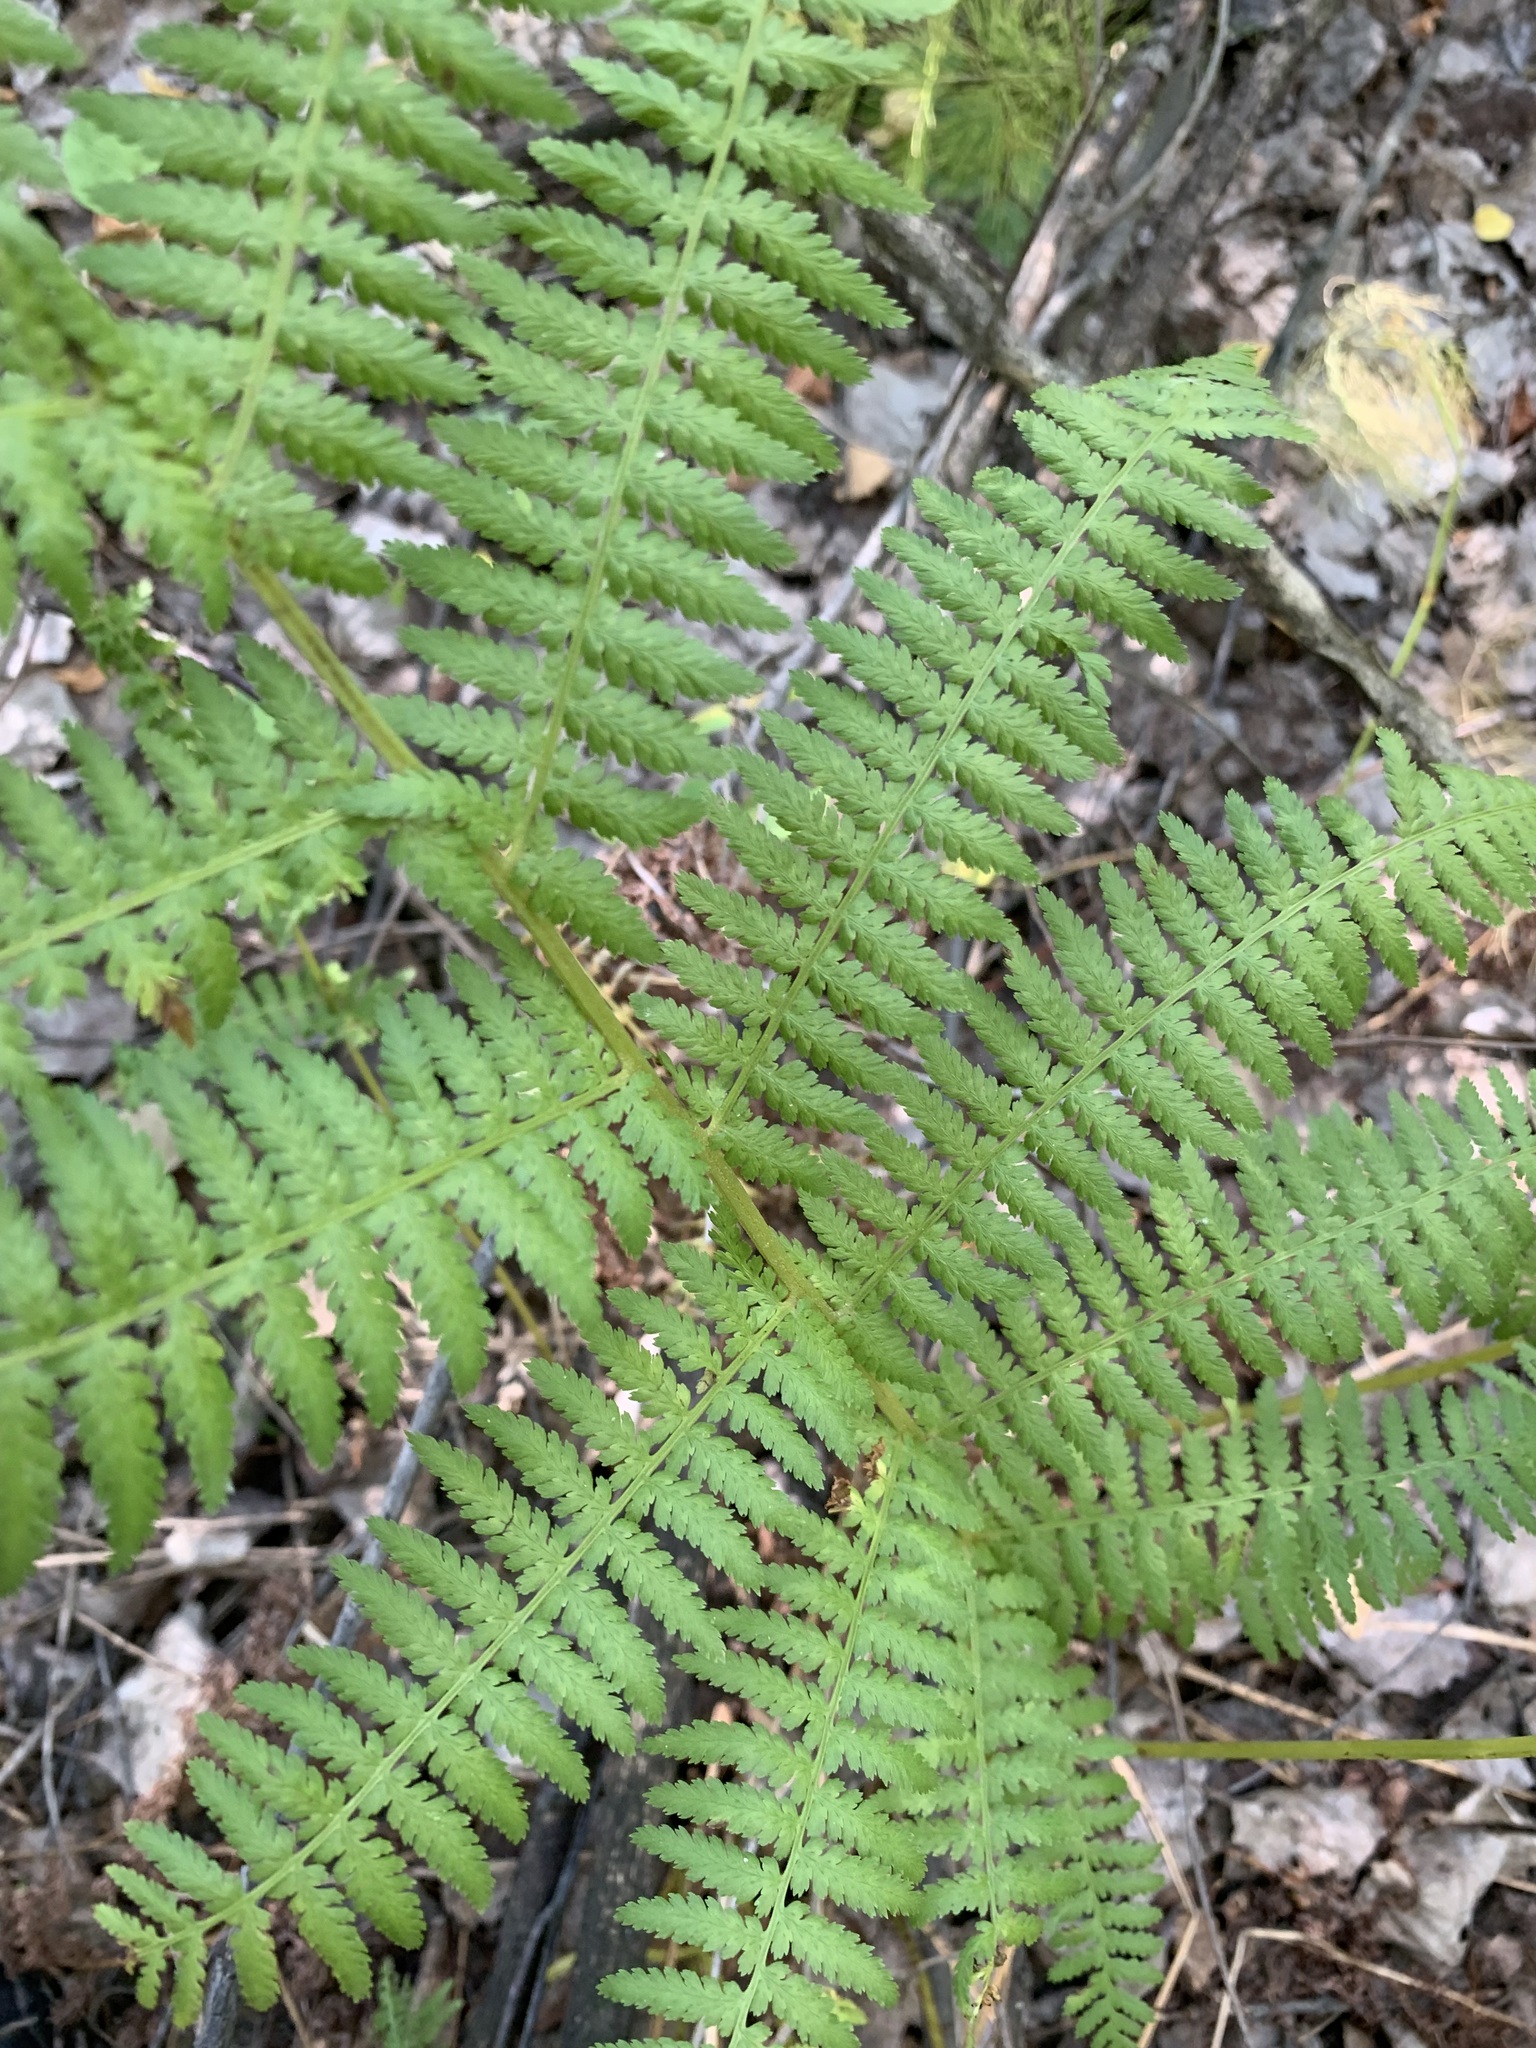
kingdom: Plantae
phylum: Tracheophyta
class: Polypodiopsida
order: Polypodiales
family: Athyriaceae
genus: Athyrium
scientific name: Athyrium filix-femina
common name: Lady fern
